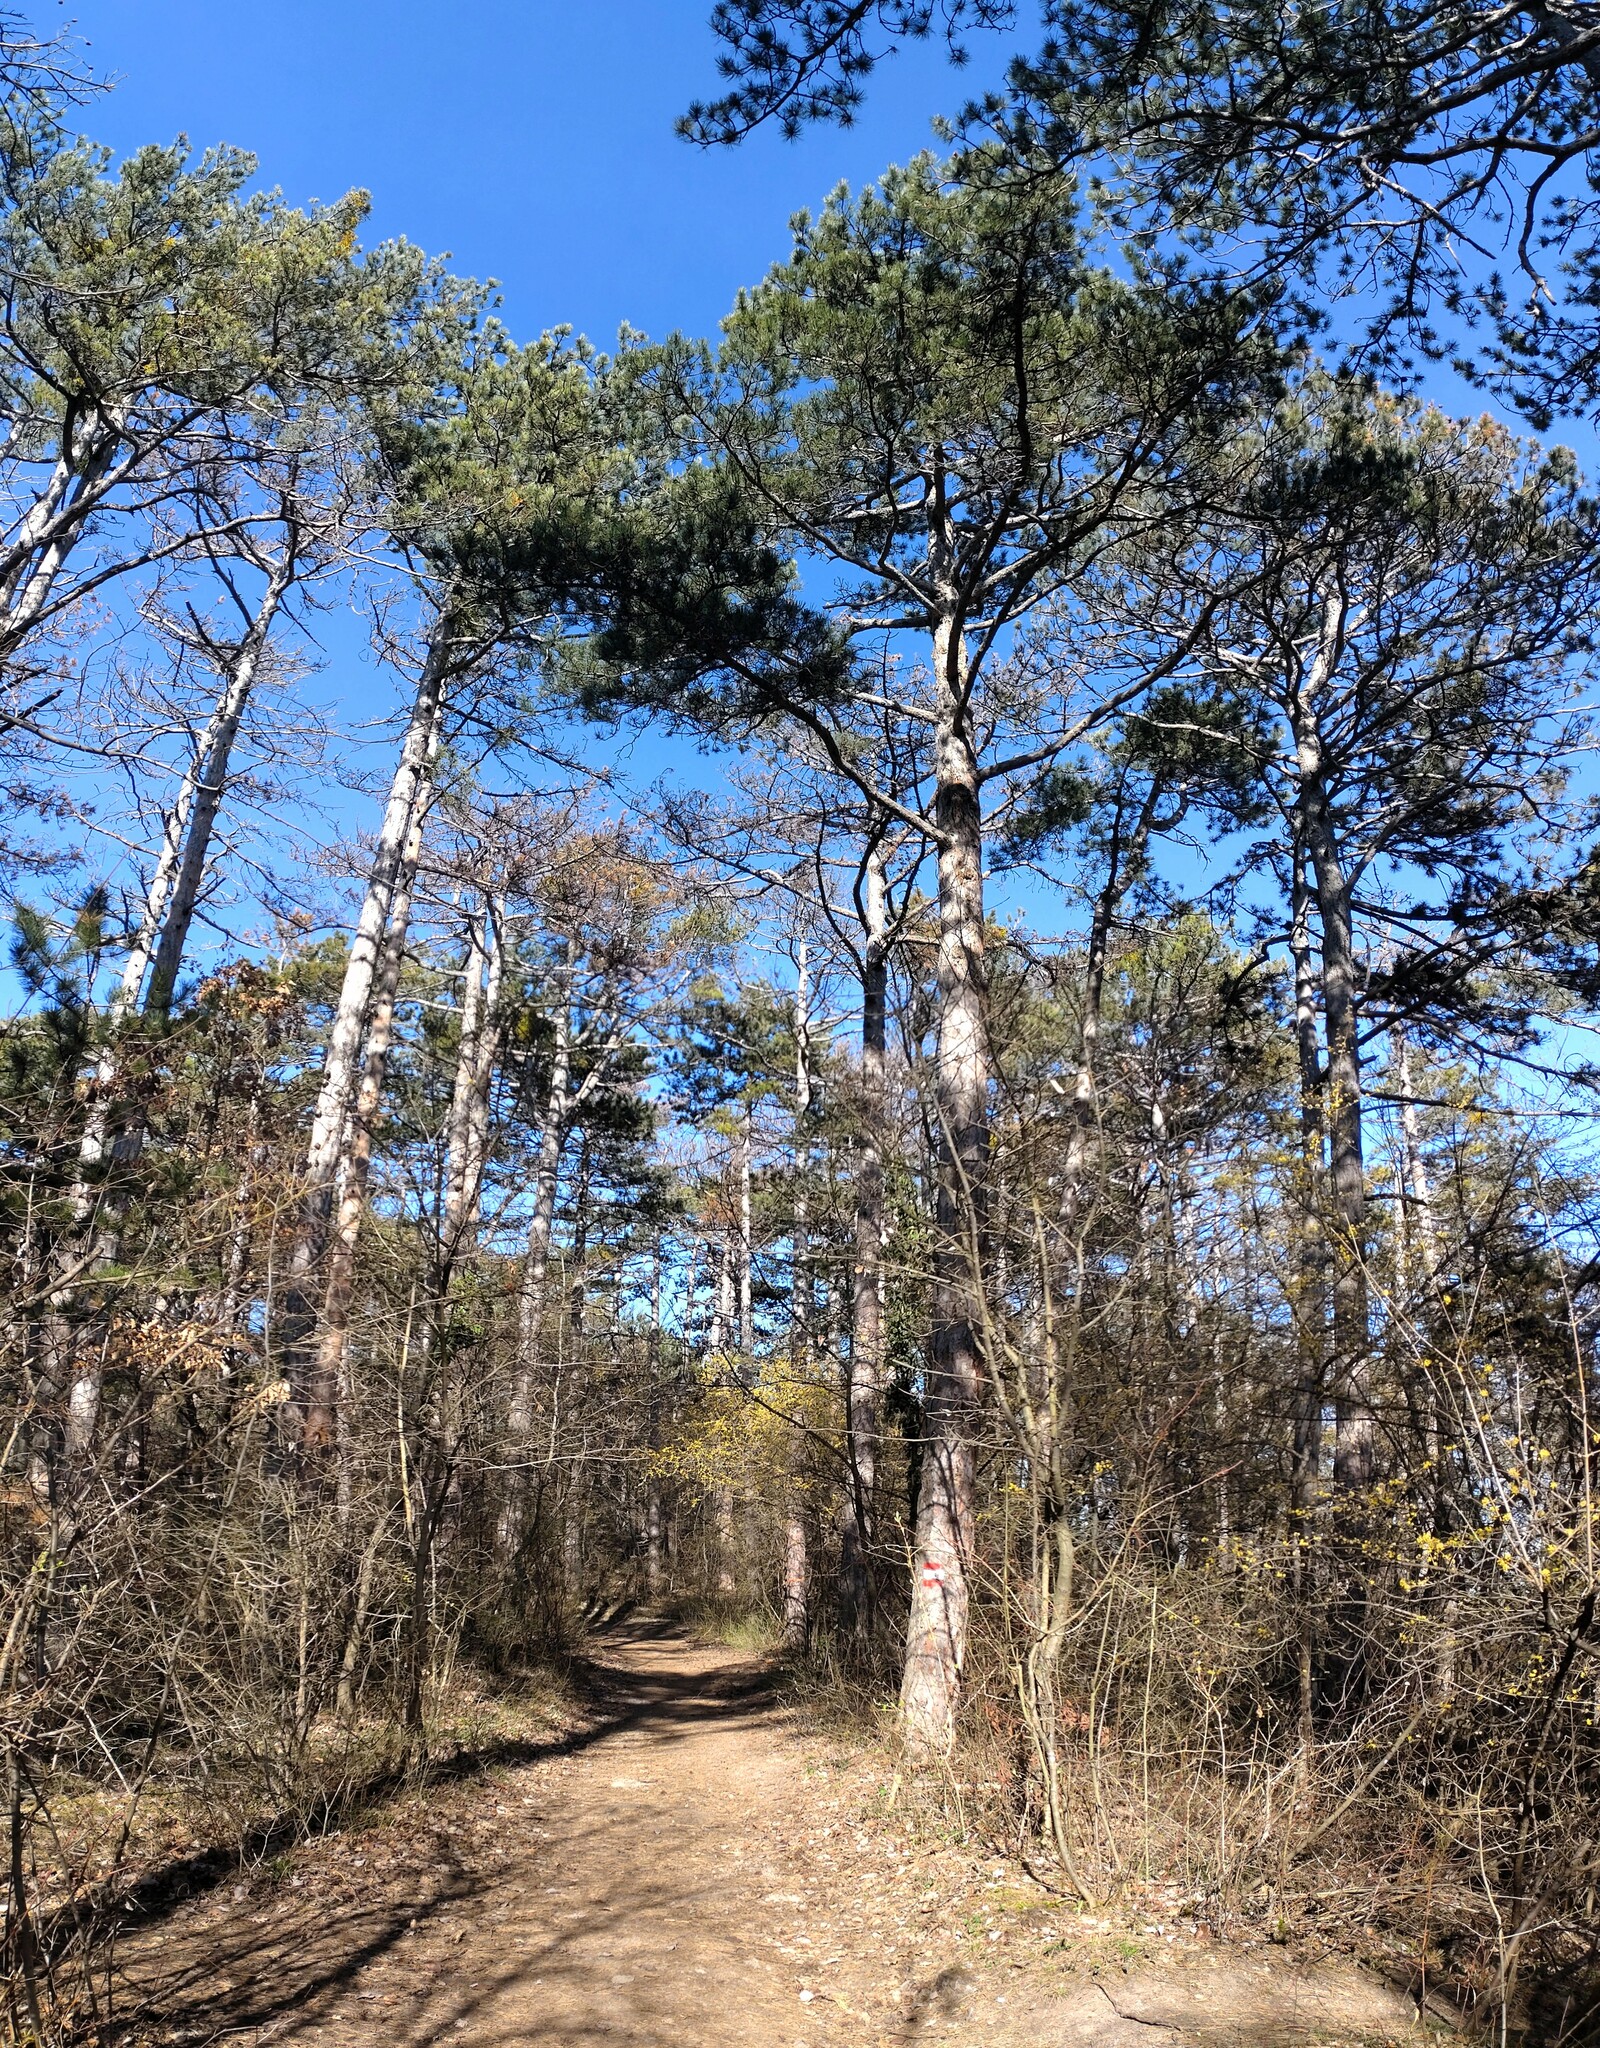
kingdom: Plantae
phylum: Tracheophyta
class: Pinopsida
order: Pinales
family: Pinaceae
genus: Pinus
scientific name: Pinus nigra
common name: Austrian pine
